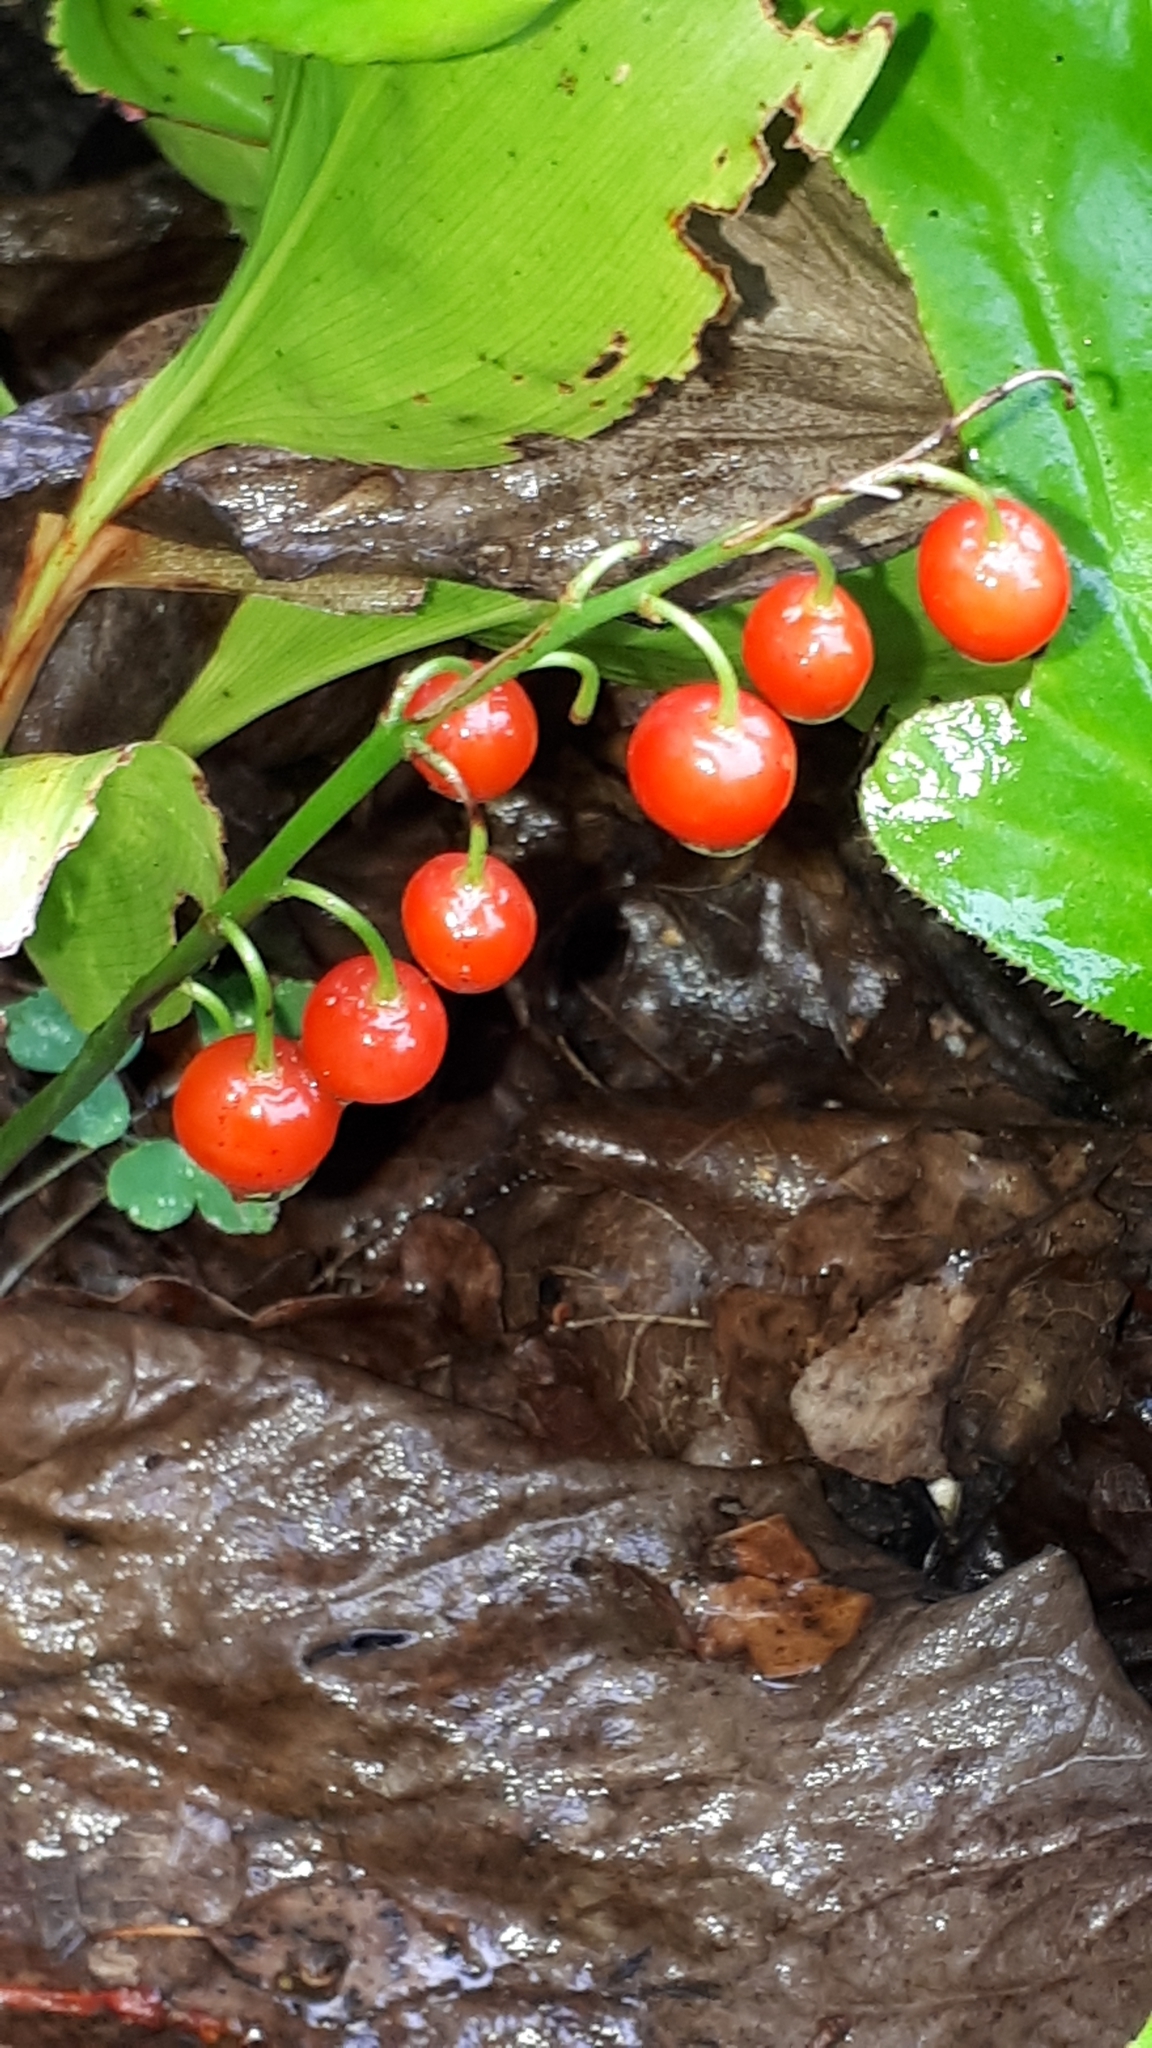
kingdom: Plantae
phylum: Tracheophyta
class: Liliopsida
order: Asparagales
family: Asparagaceae
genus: Convallaria
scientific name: Convallaria majalis
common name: Lily-of-the-valley
